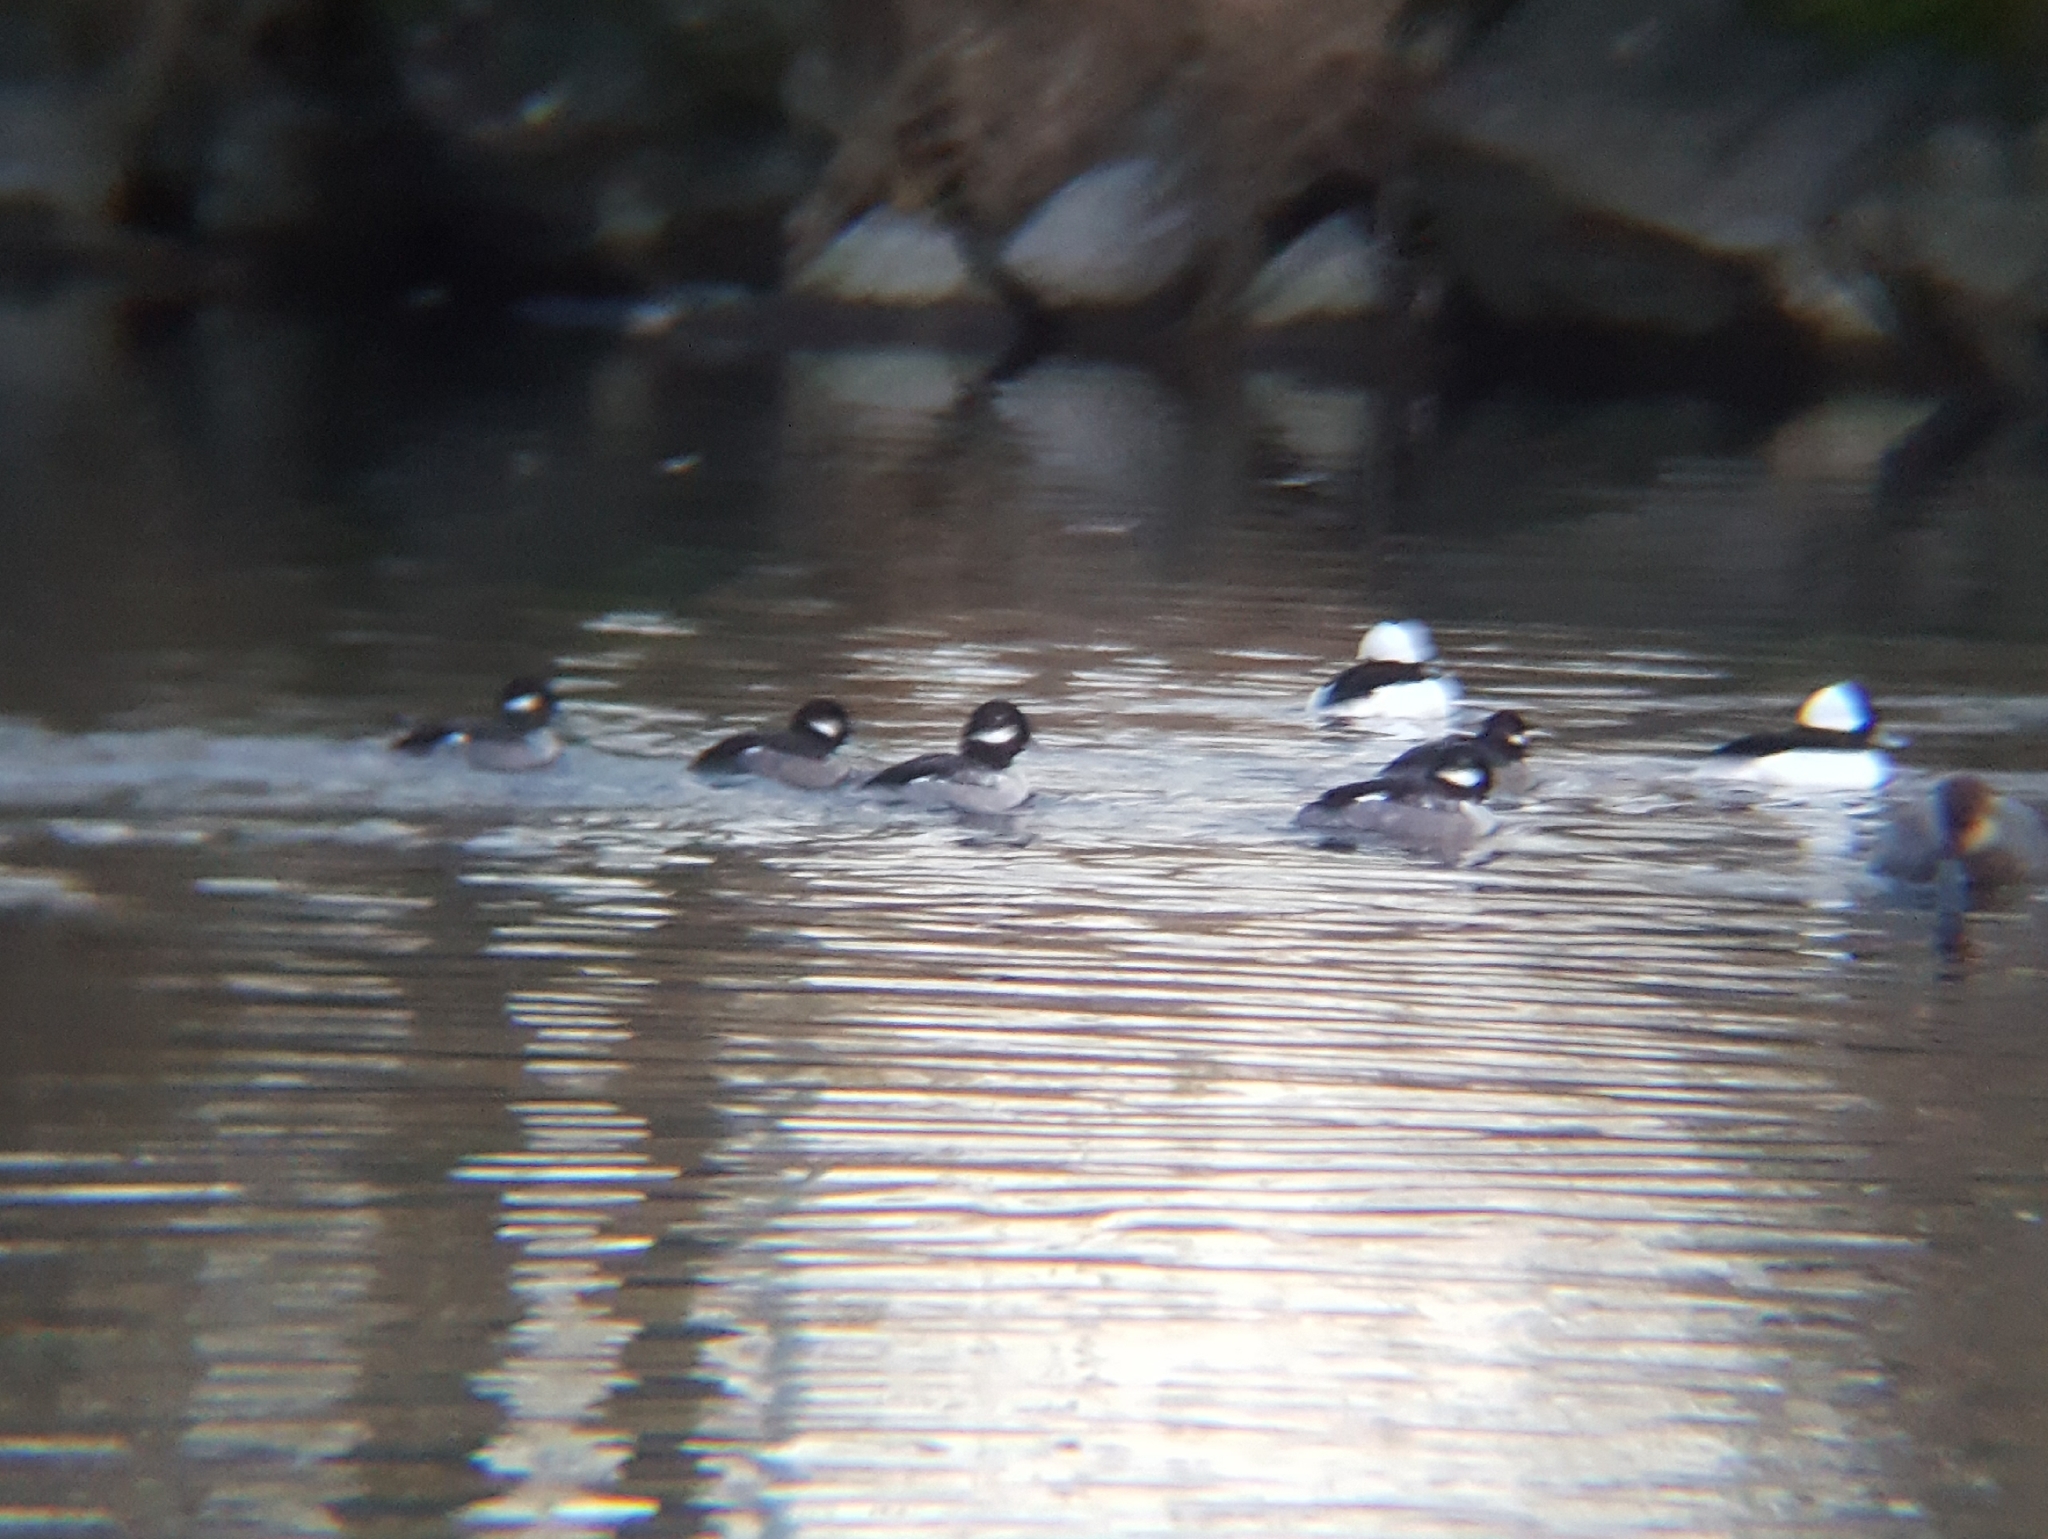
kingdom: Animalia
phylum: Chordata
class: Aves
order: Anseriformes
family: Anatidae
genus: Bucephala
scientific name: Bucephala albeola
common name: Bufflehead
